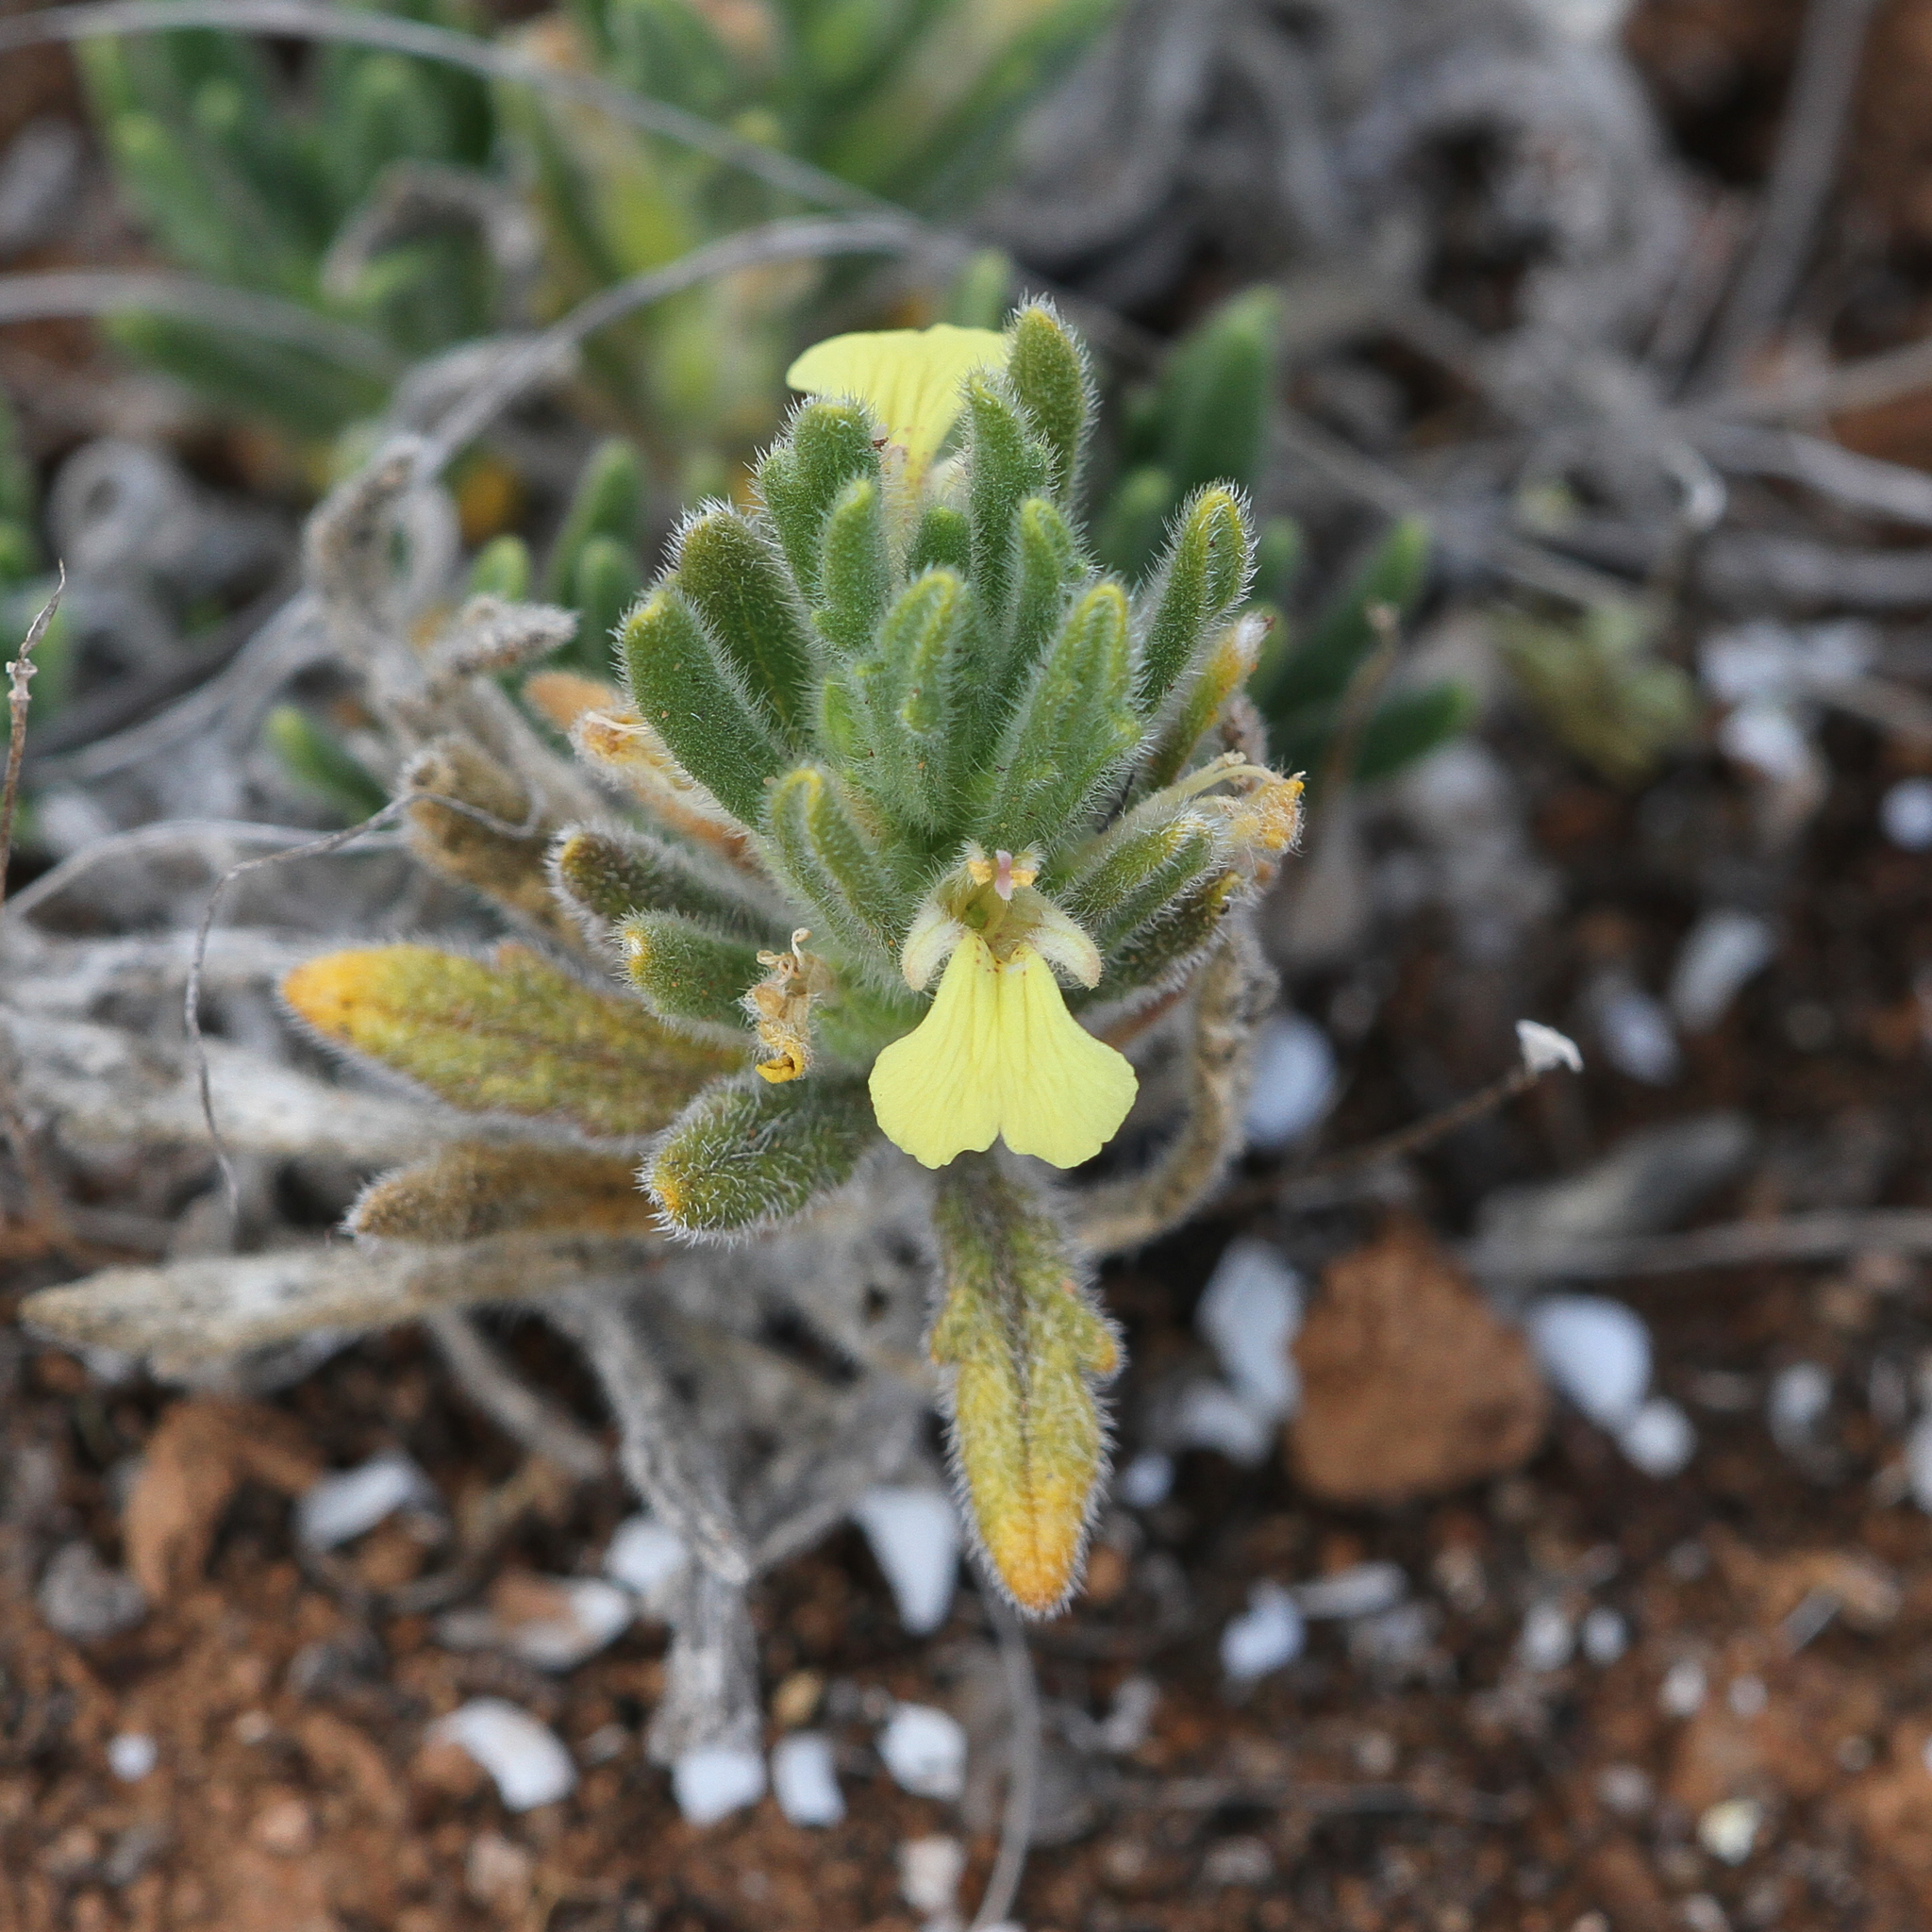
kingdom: Plantae
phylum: Tracheophyta
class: Magnoliopsida
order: Lamiales
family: Lamiaceae
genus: Ajuga
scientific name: Ajuga iva
